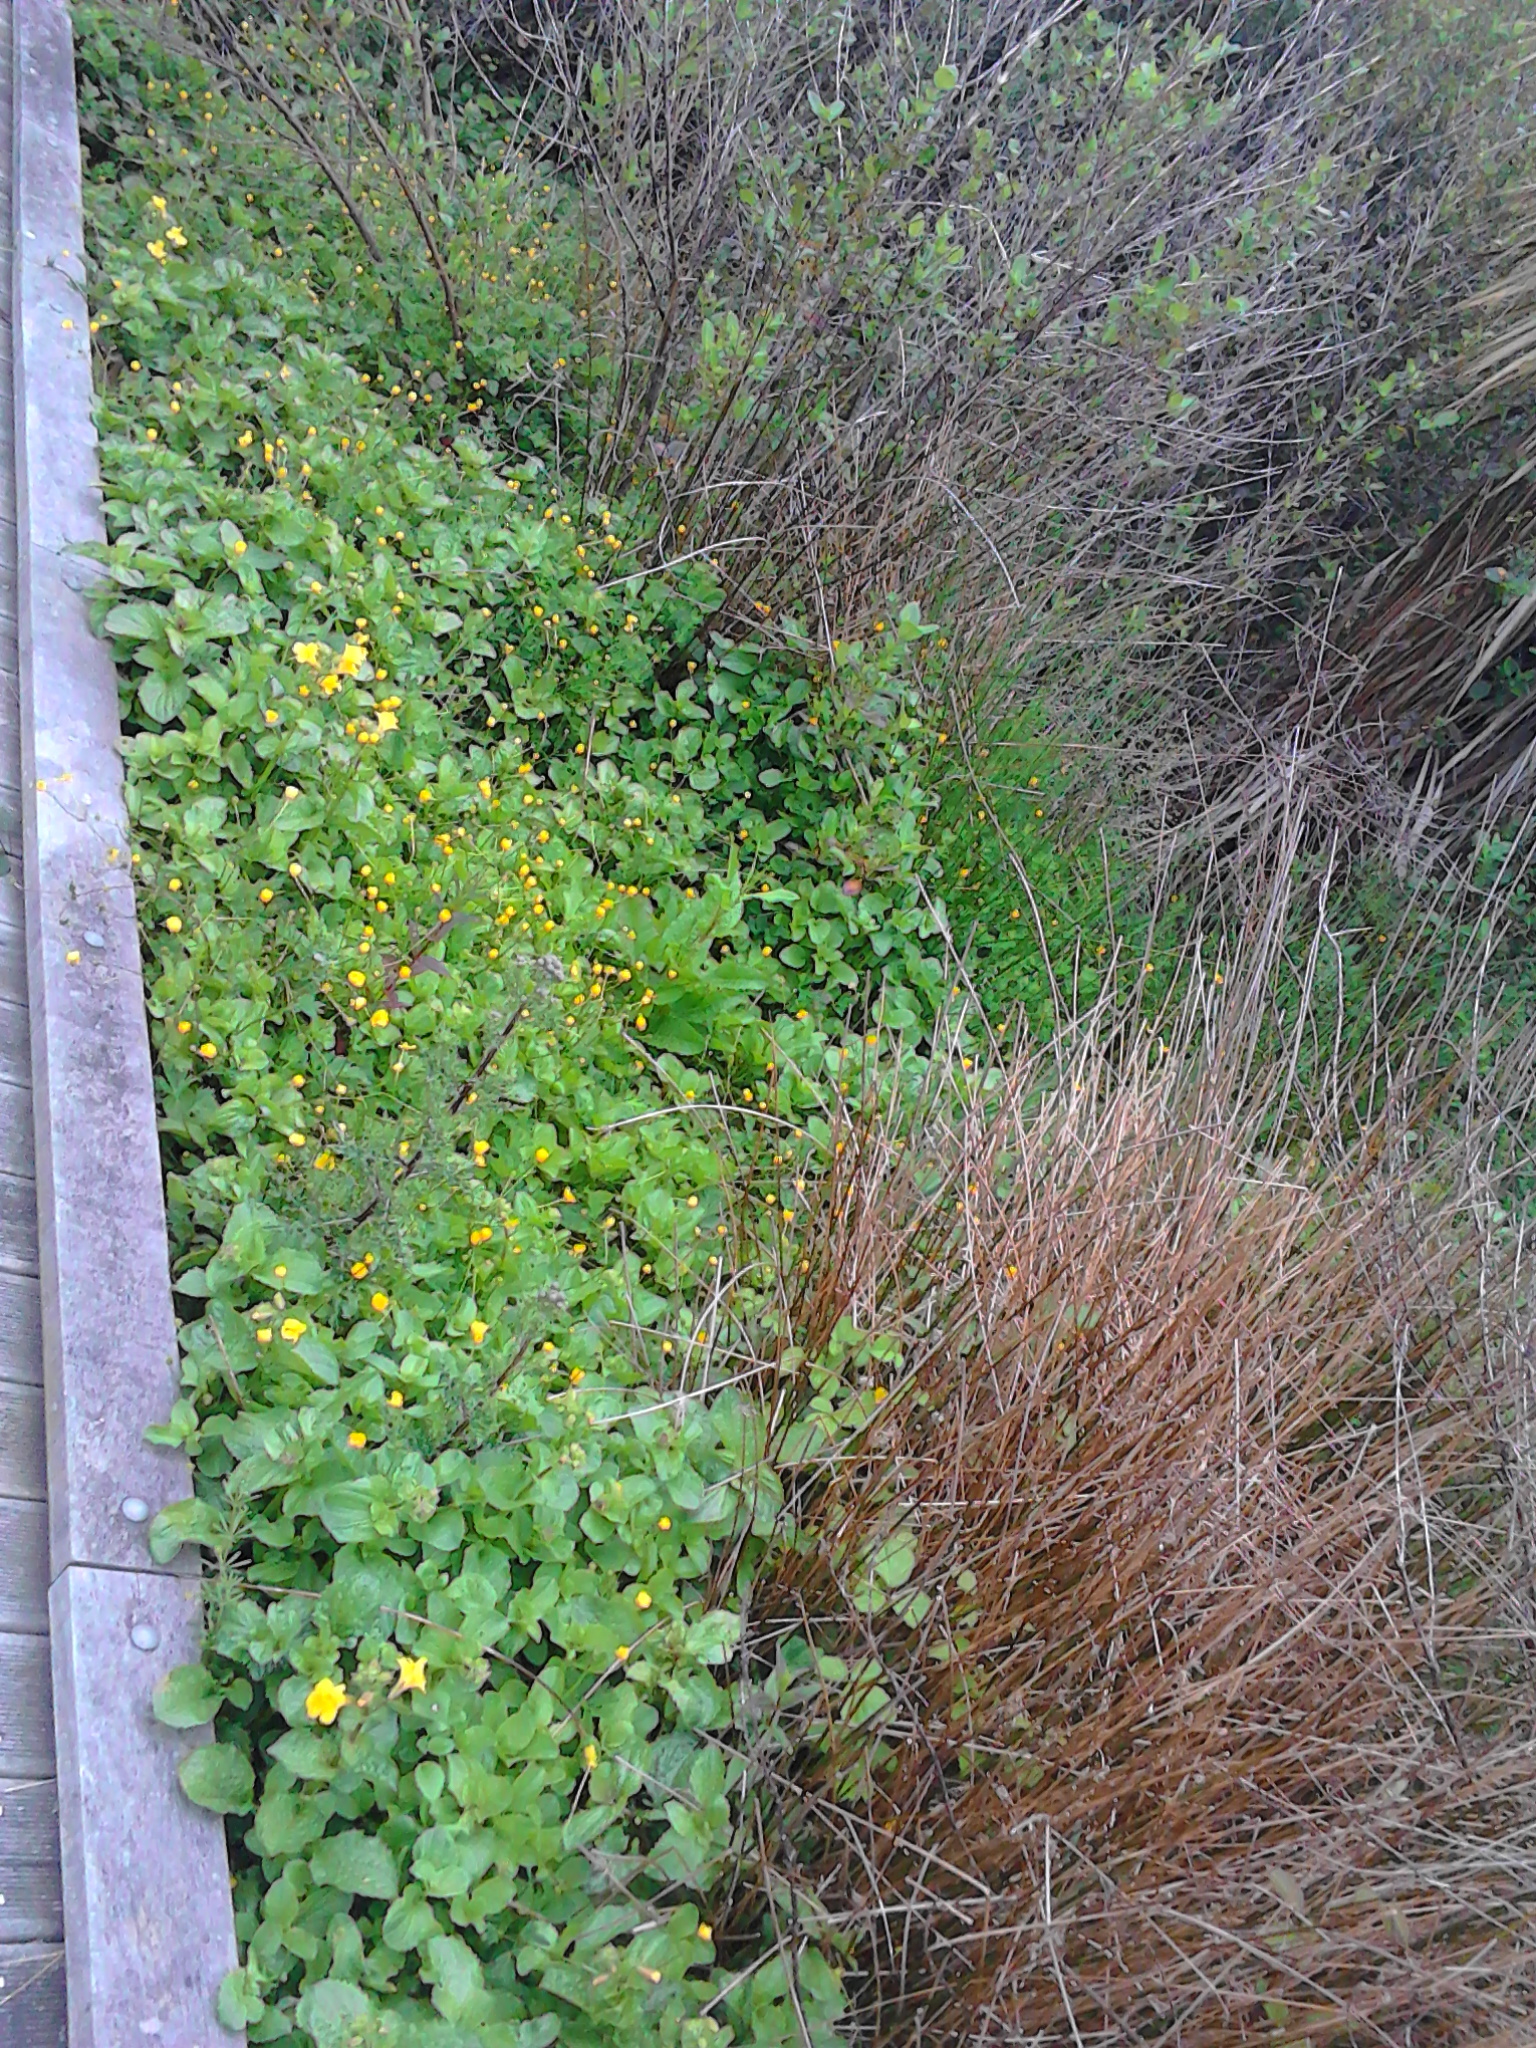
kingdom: Plantae
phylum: Tracheophyta
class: Magnoliopsida
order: Lamiales
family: Phrymaceae
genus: Erythranthe
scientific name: Erythranthe guttata
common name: Monkeyflower
